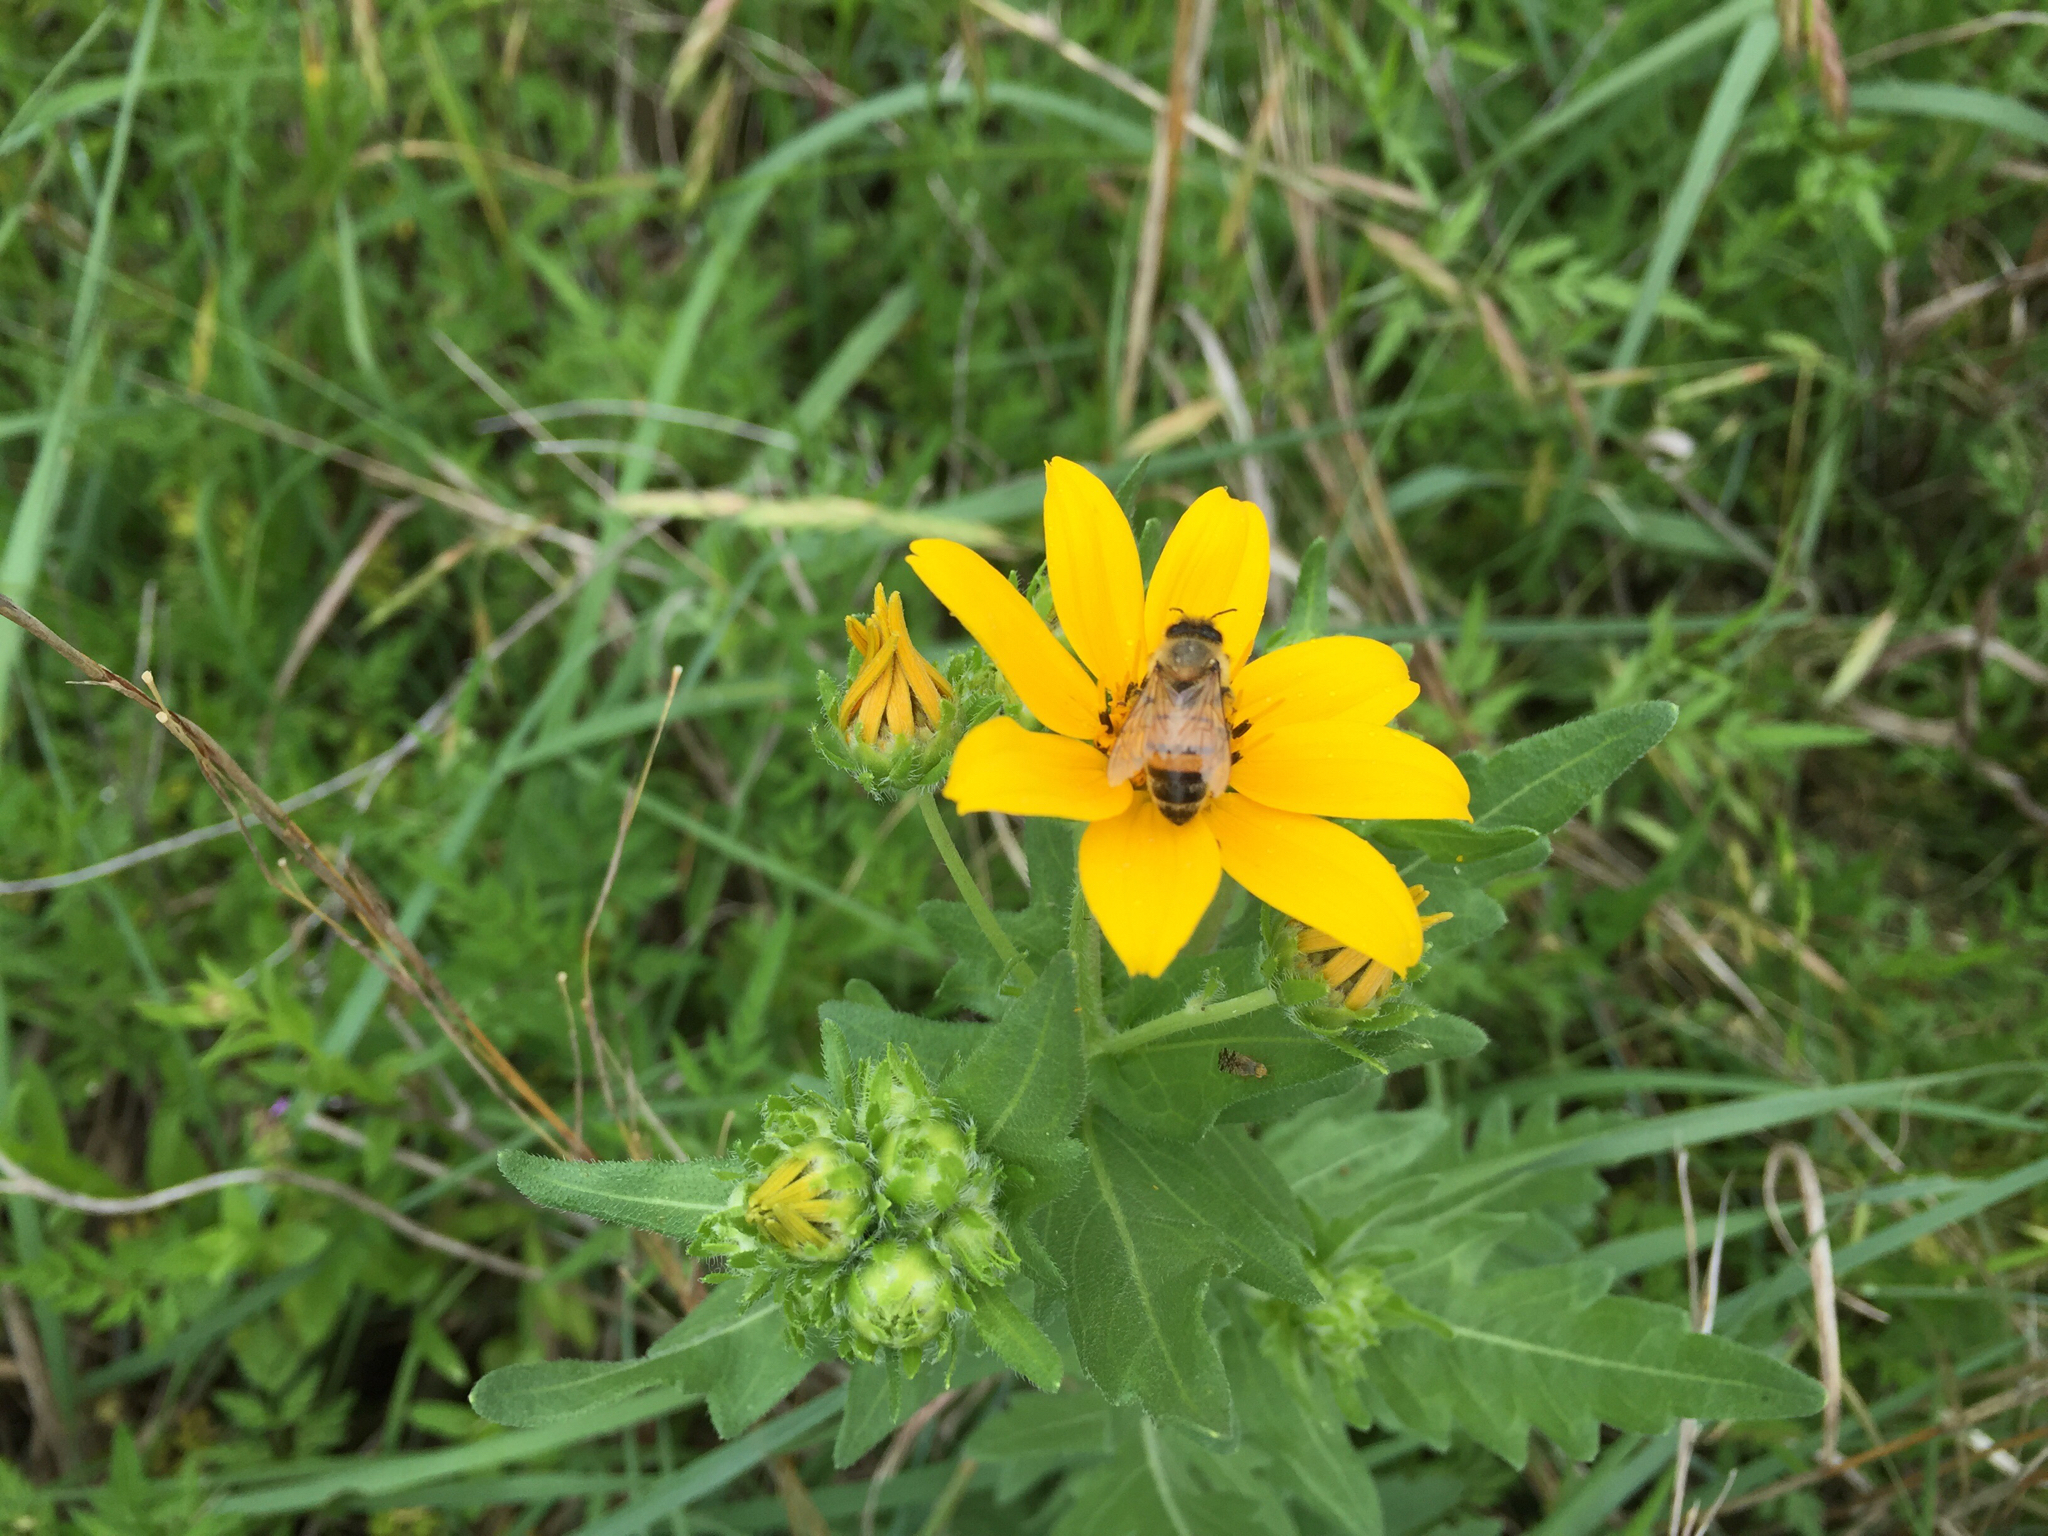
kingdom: Animalia
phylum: Arthropoda
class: Insecta
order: Hymenoptera
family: Apidae
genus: Apis
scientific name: Apis mellifera
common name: Honey bee
